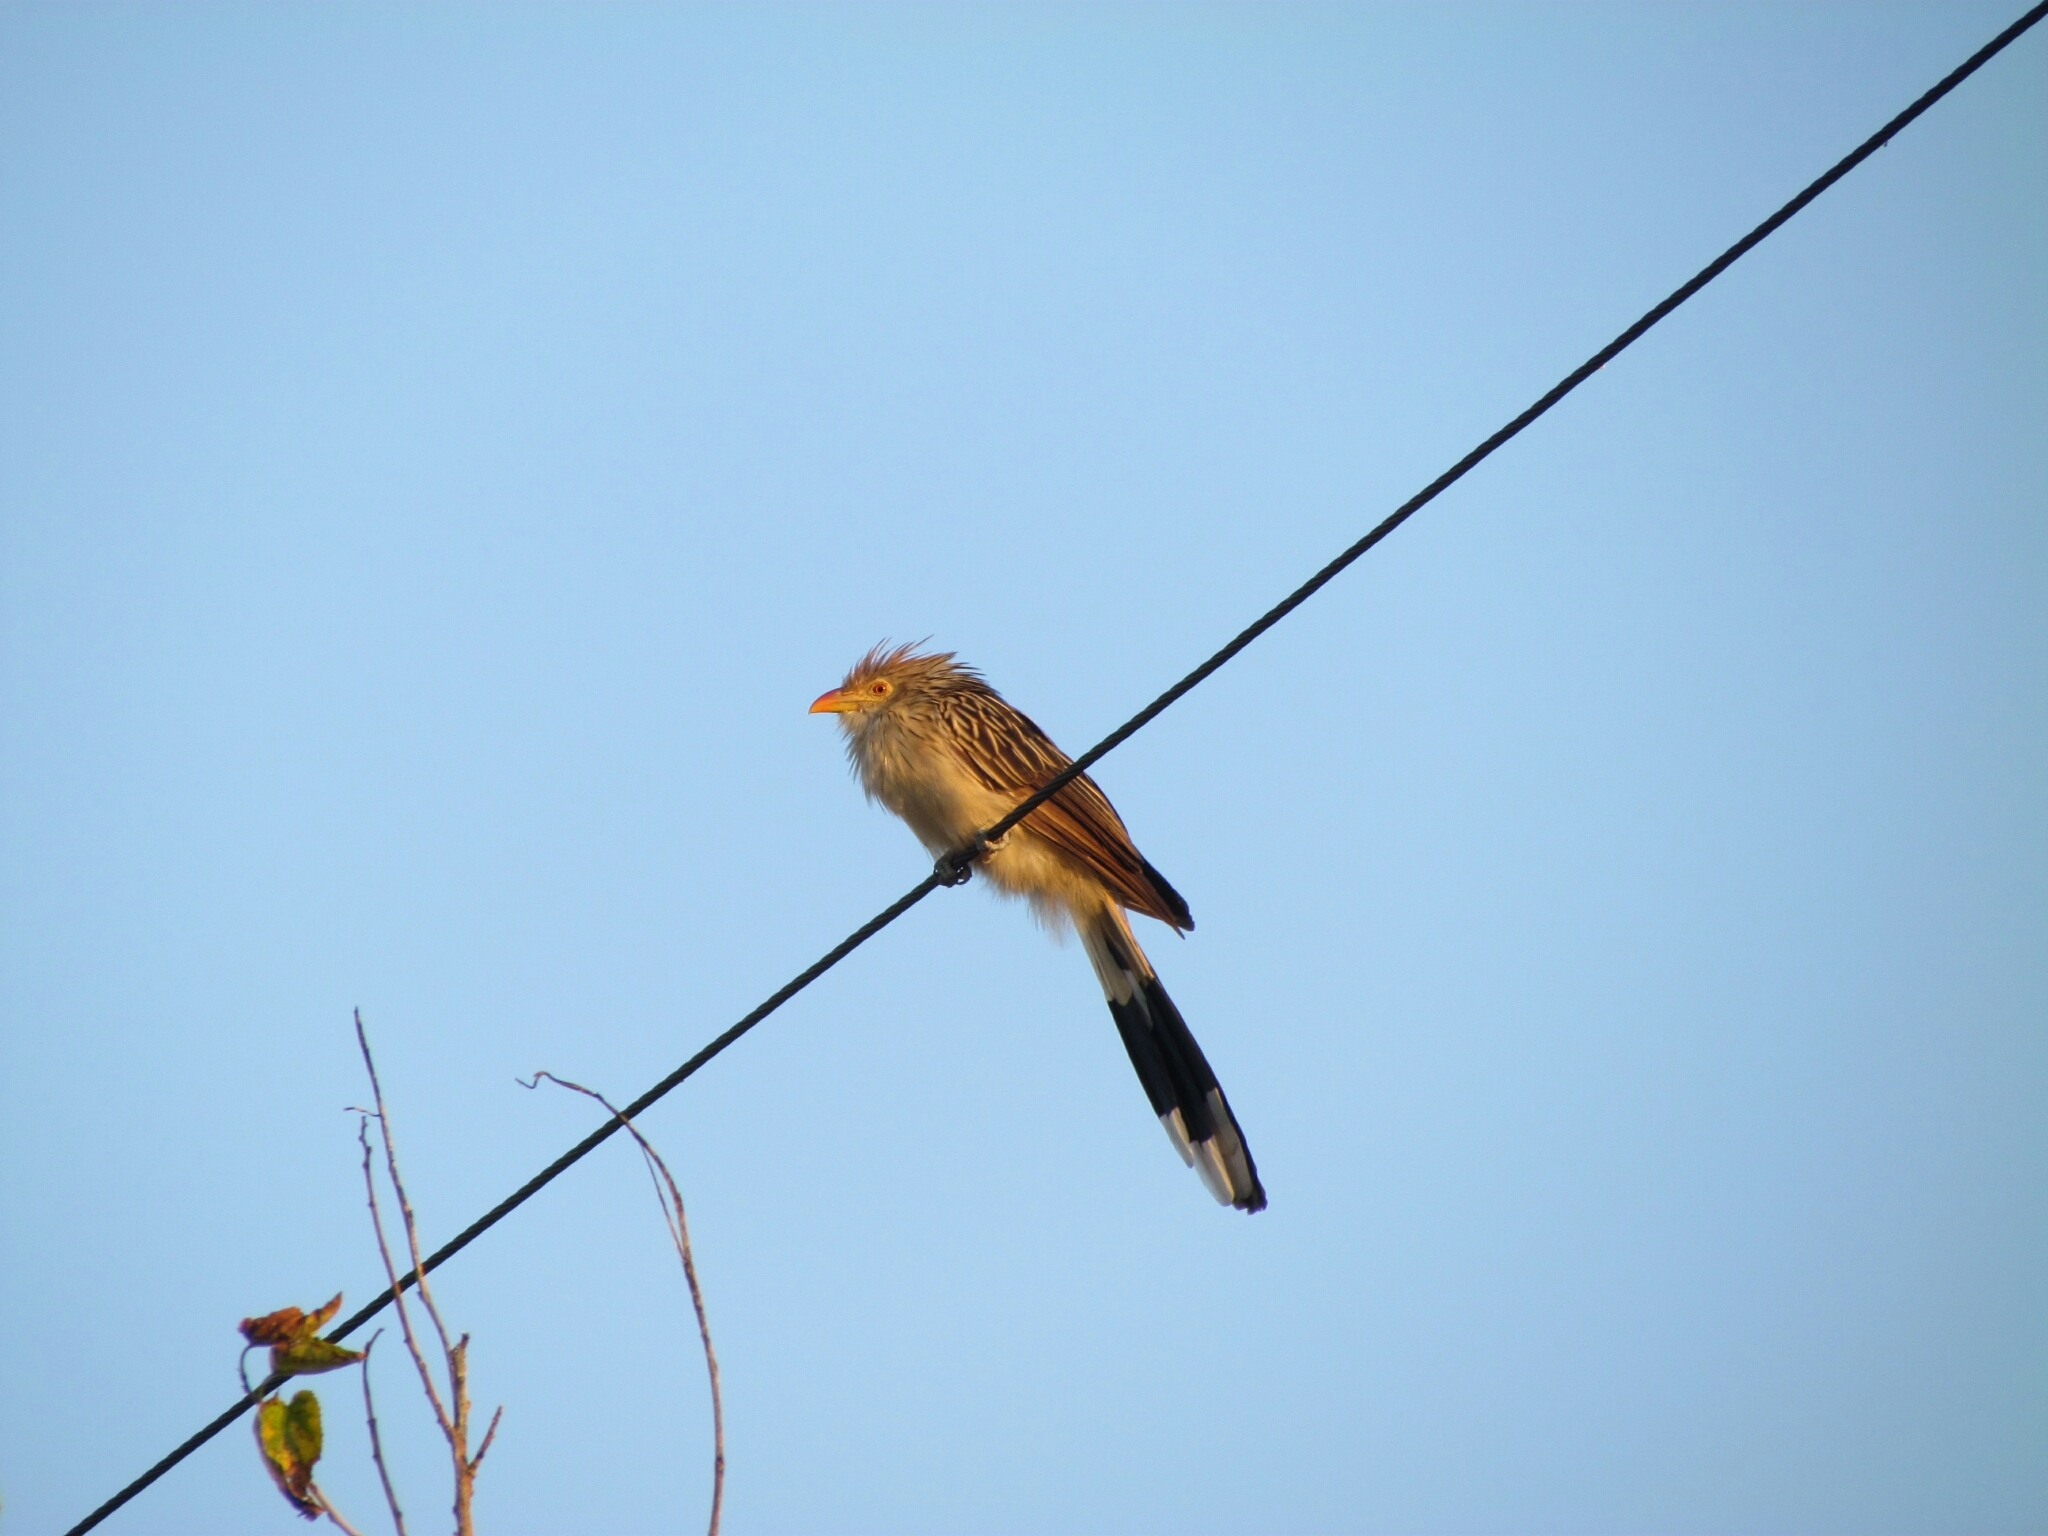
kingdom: Animalia
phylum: Chordata
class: Aves
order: Cuculiformes
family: Cuculidae
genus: Guira
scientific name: Guira guira
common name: Guira cuckoo
